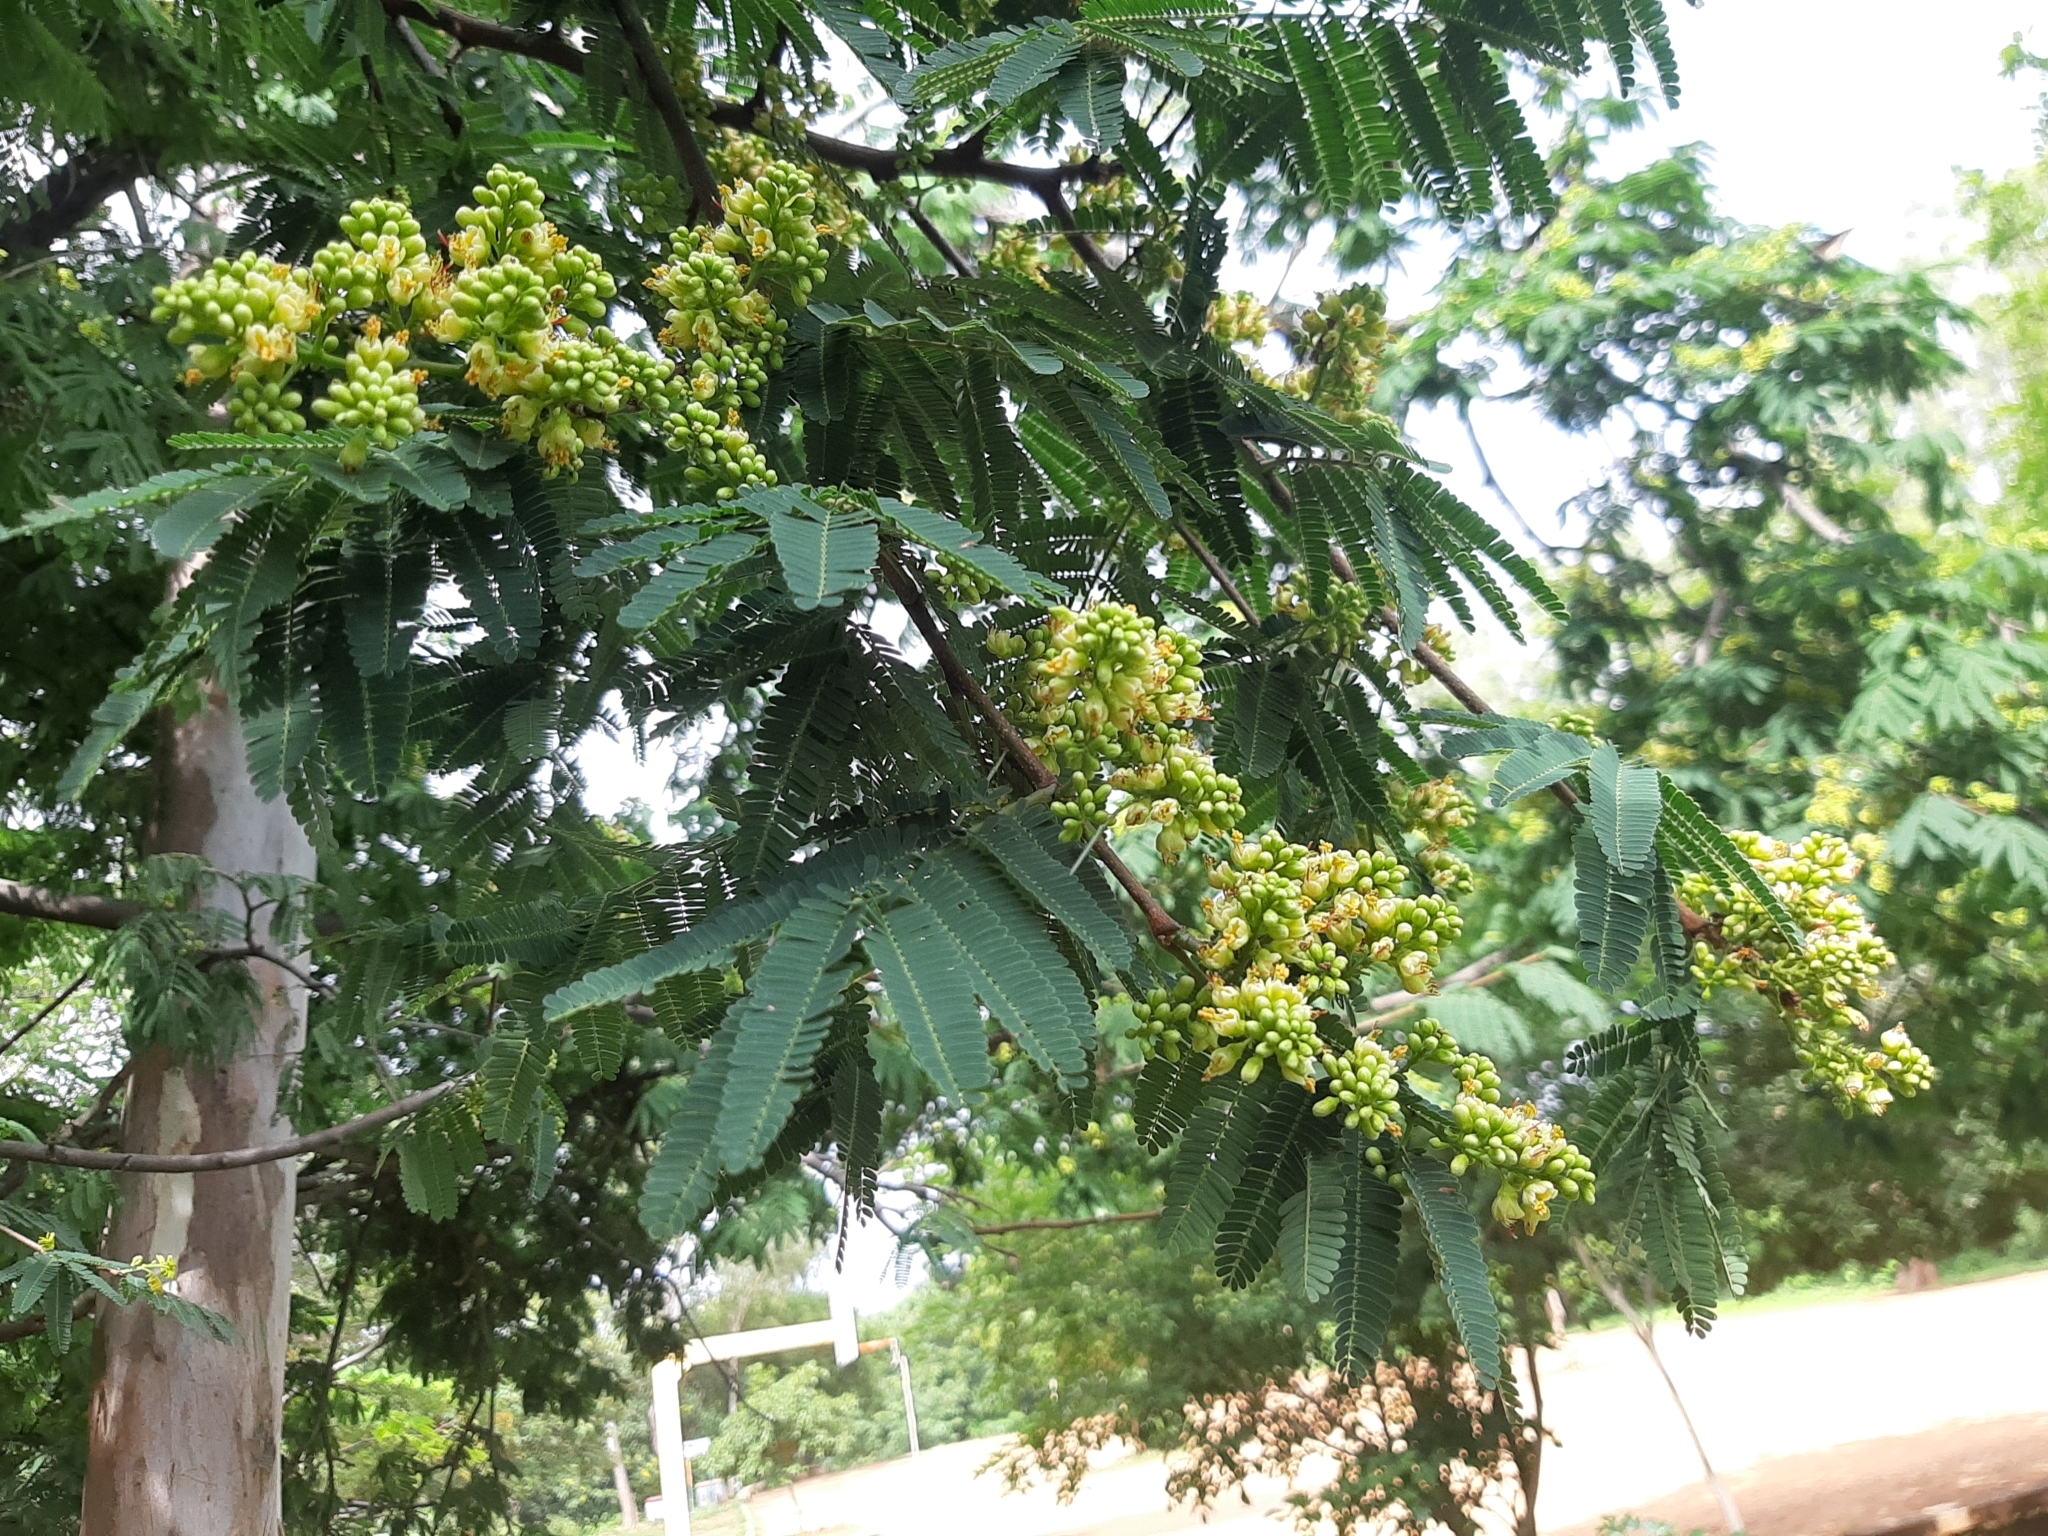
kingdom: Plantae
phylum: Tracheophyta
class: Magnoliopsida
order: Fabales
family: Fabaceae
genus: Libidibia
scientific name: Libidibia coriaria
